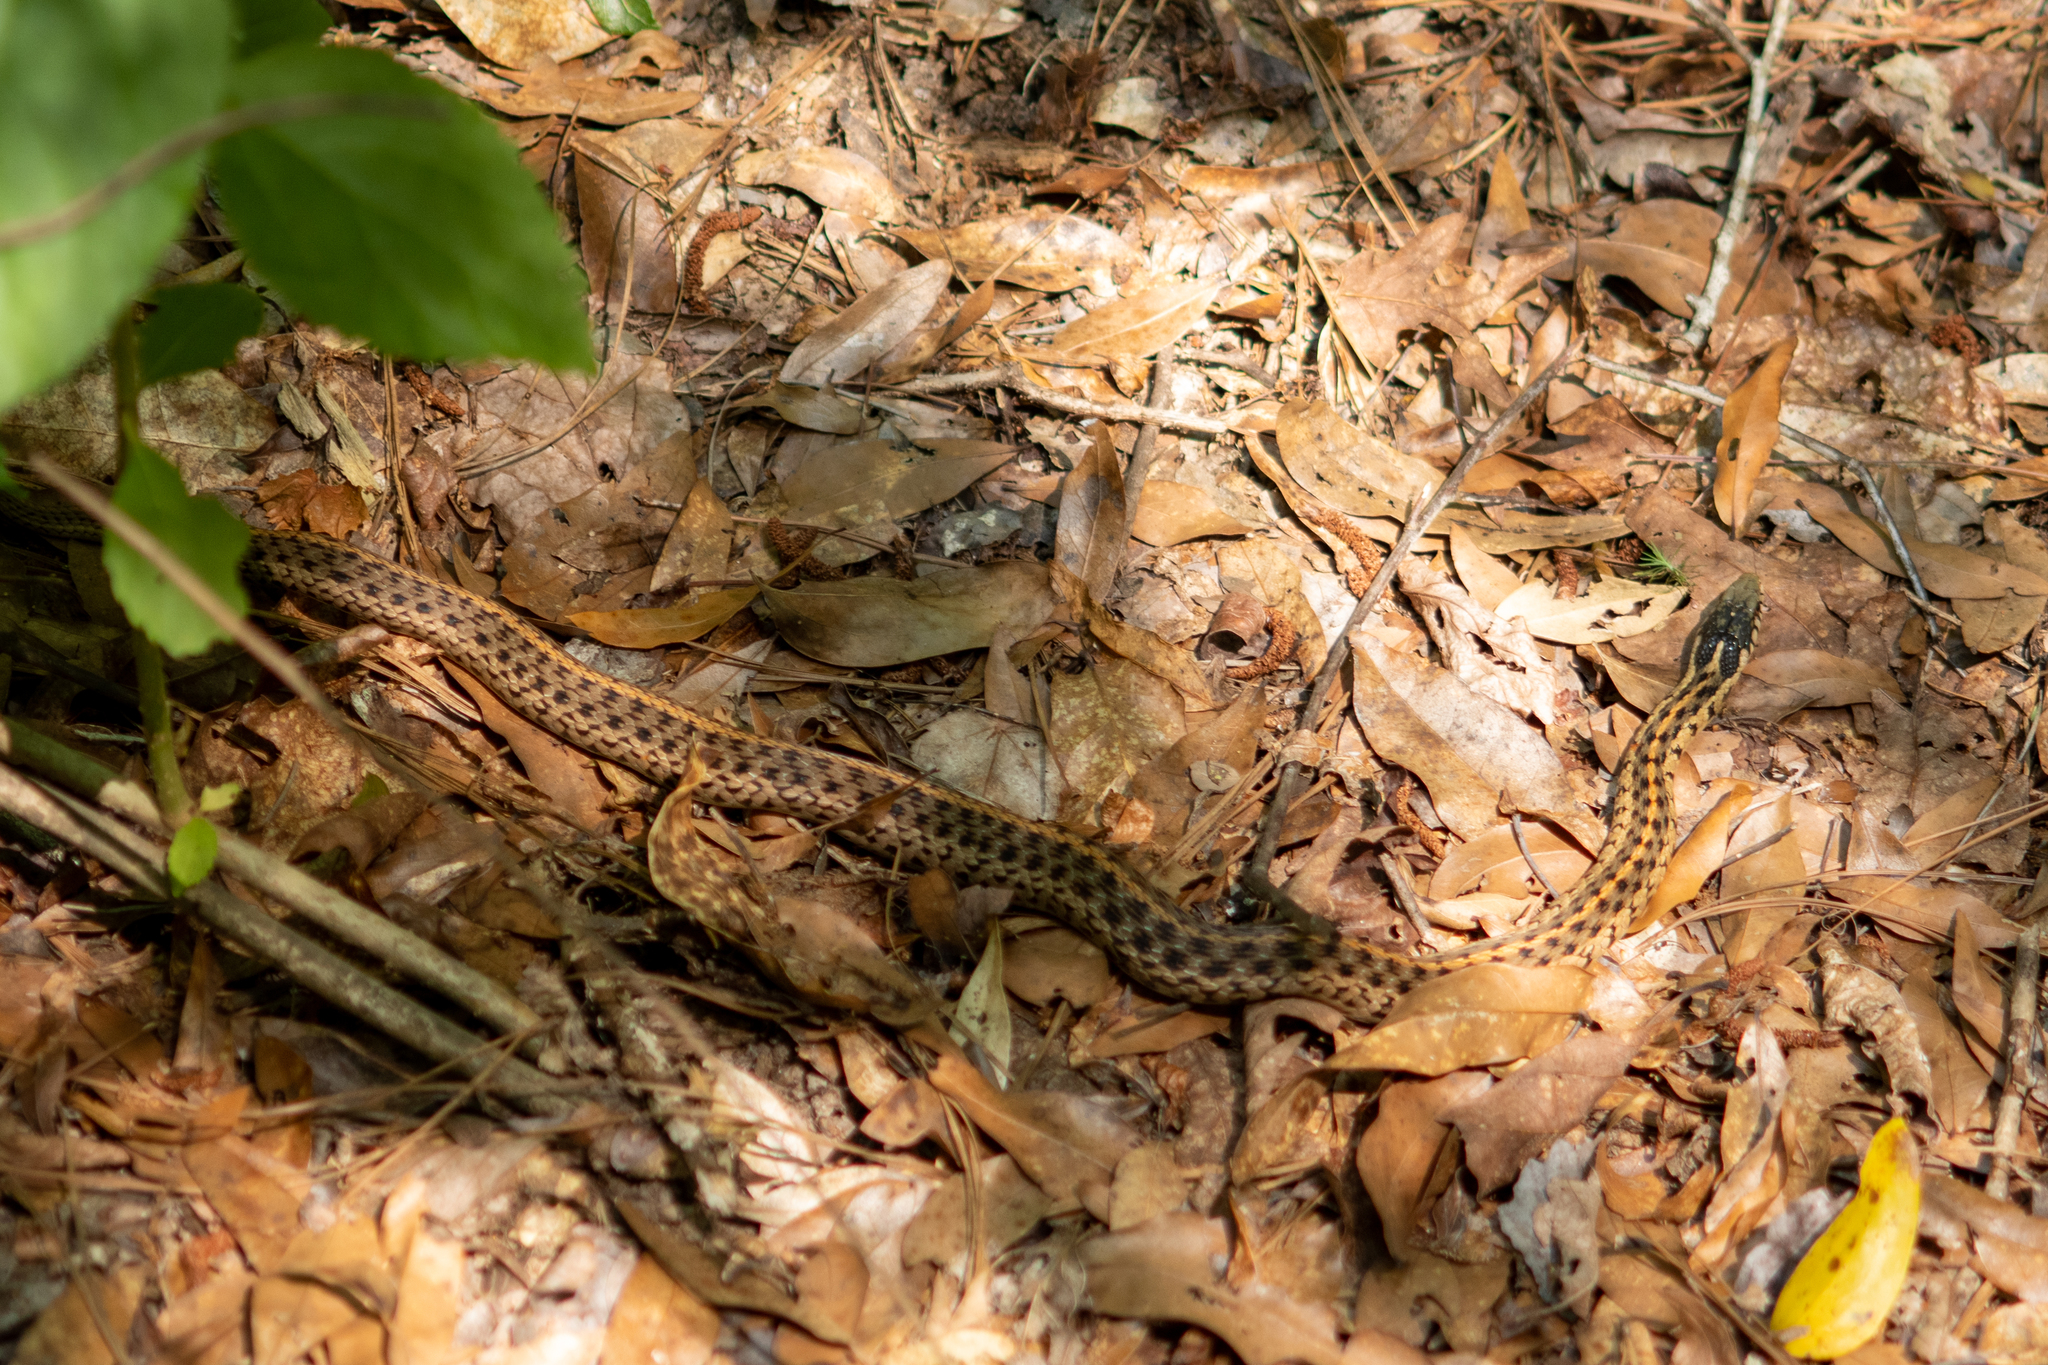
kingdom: Animalia
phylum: Chordata
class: Squamata
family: Colubridae
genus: Thamnophis
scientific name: Thamnophis sirtalis
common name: Common garter snake
